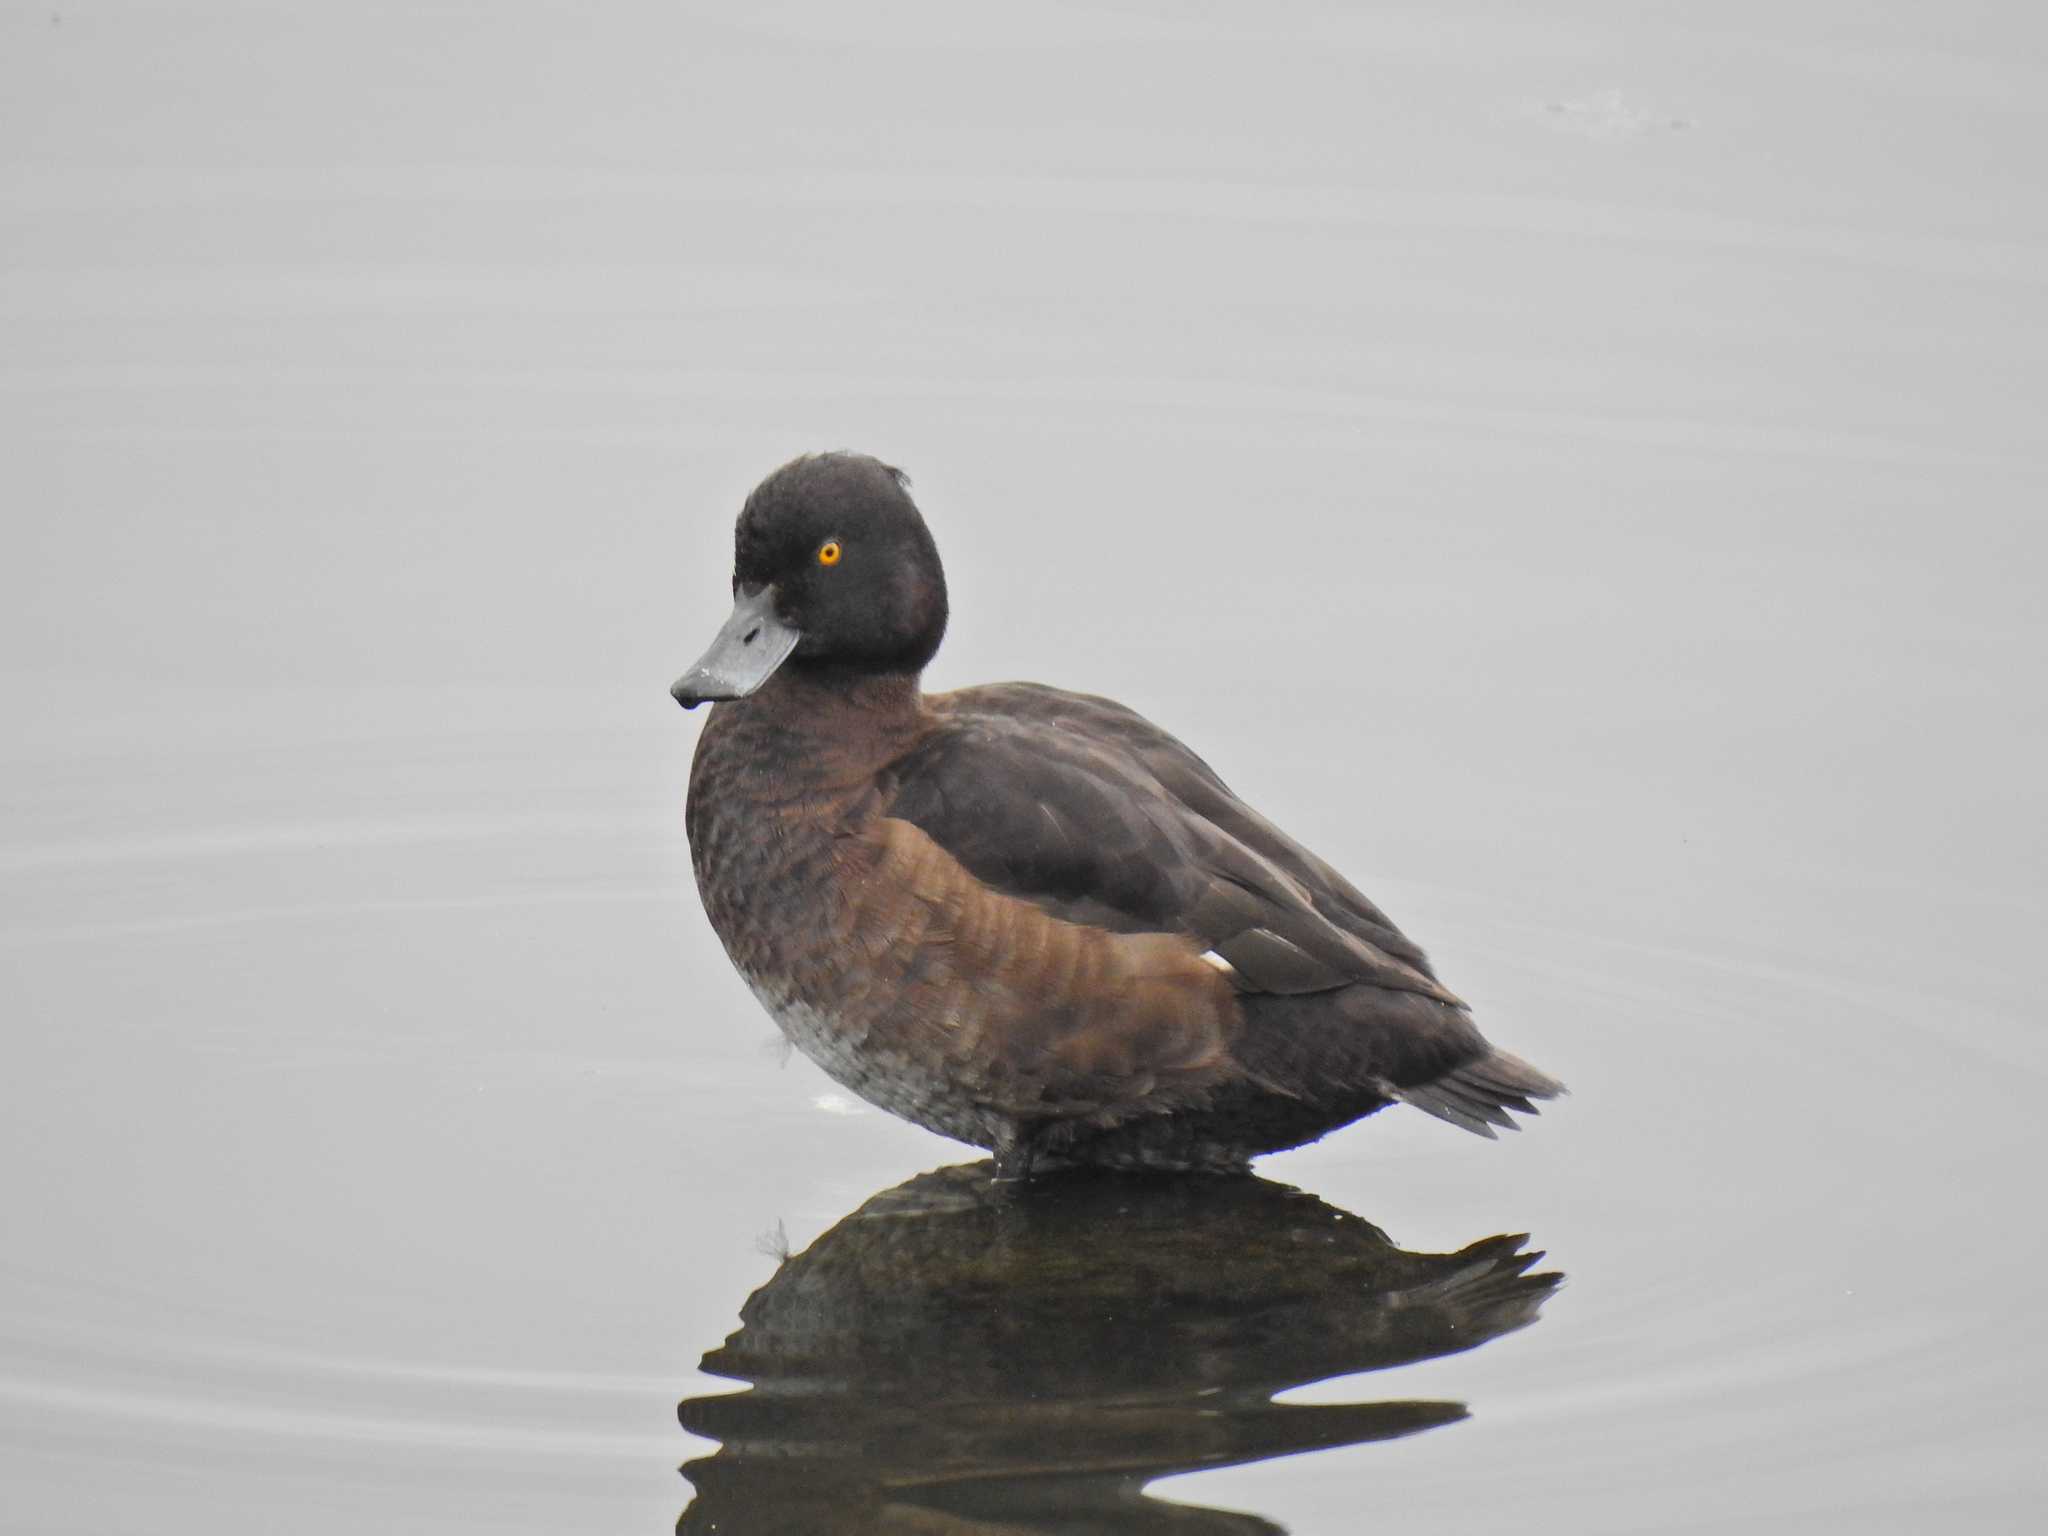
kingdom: Animalia
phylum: Chordata
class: Aves
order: Anseriformes
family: Anatidae
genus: Aythya
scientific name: Aythya fuligula
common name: Tufted duck
